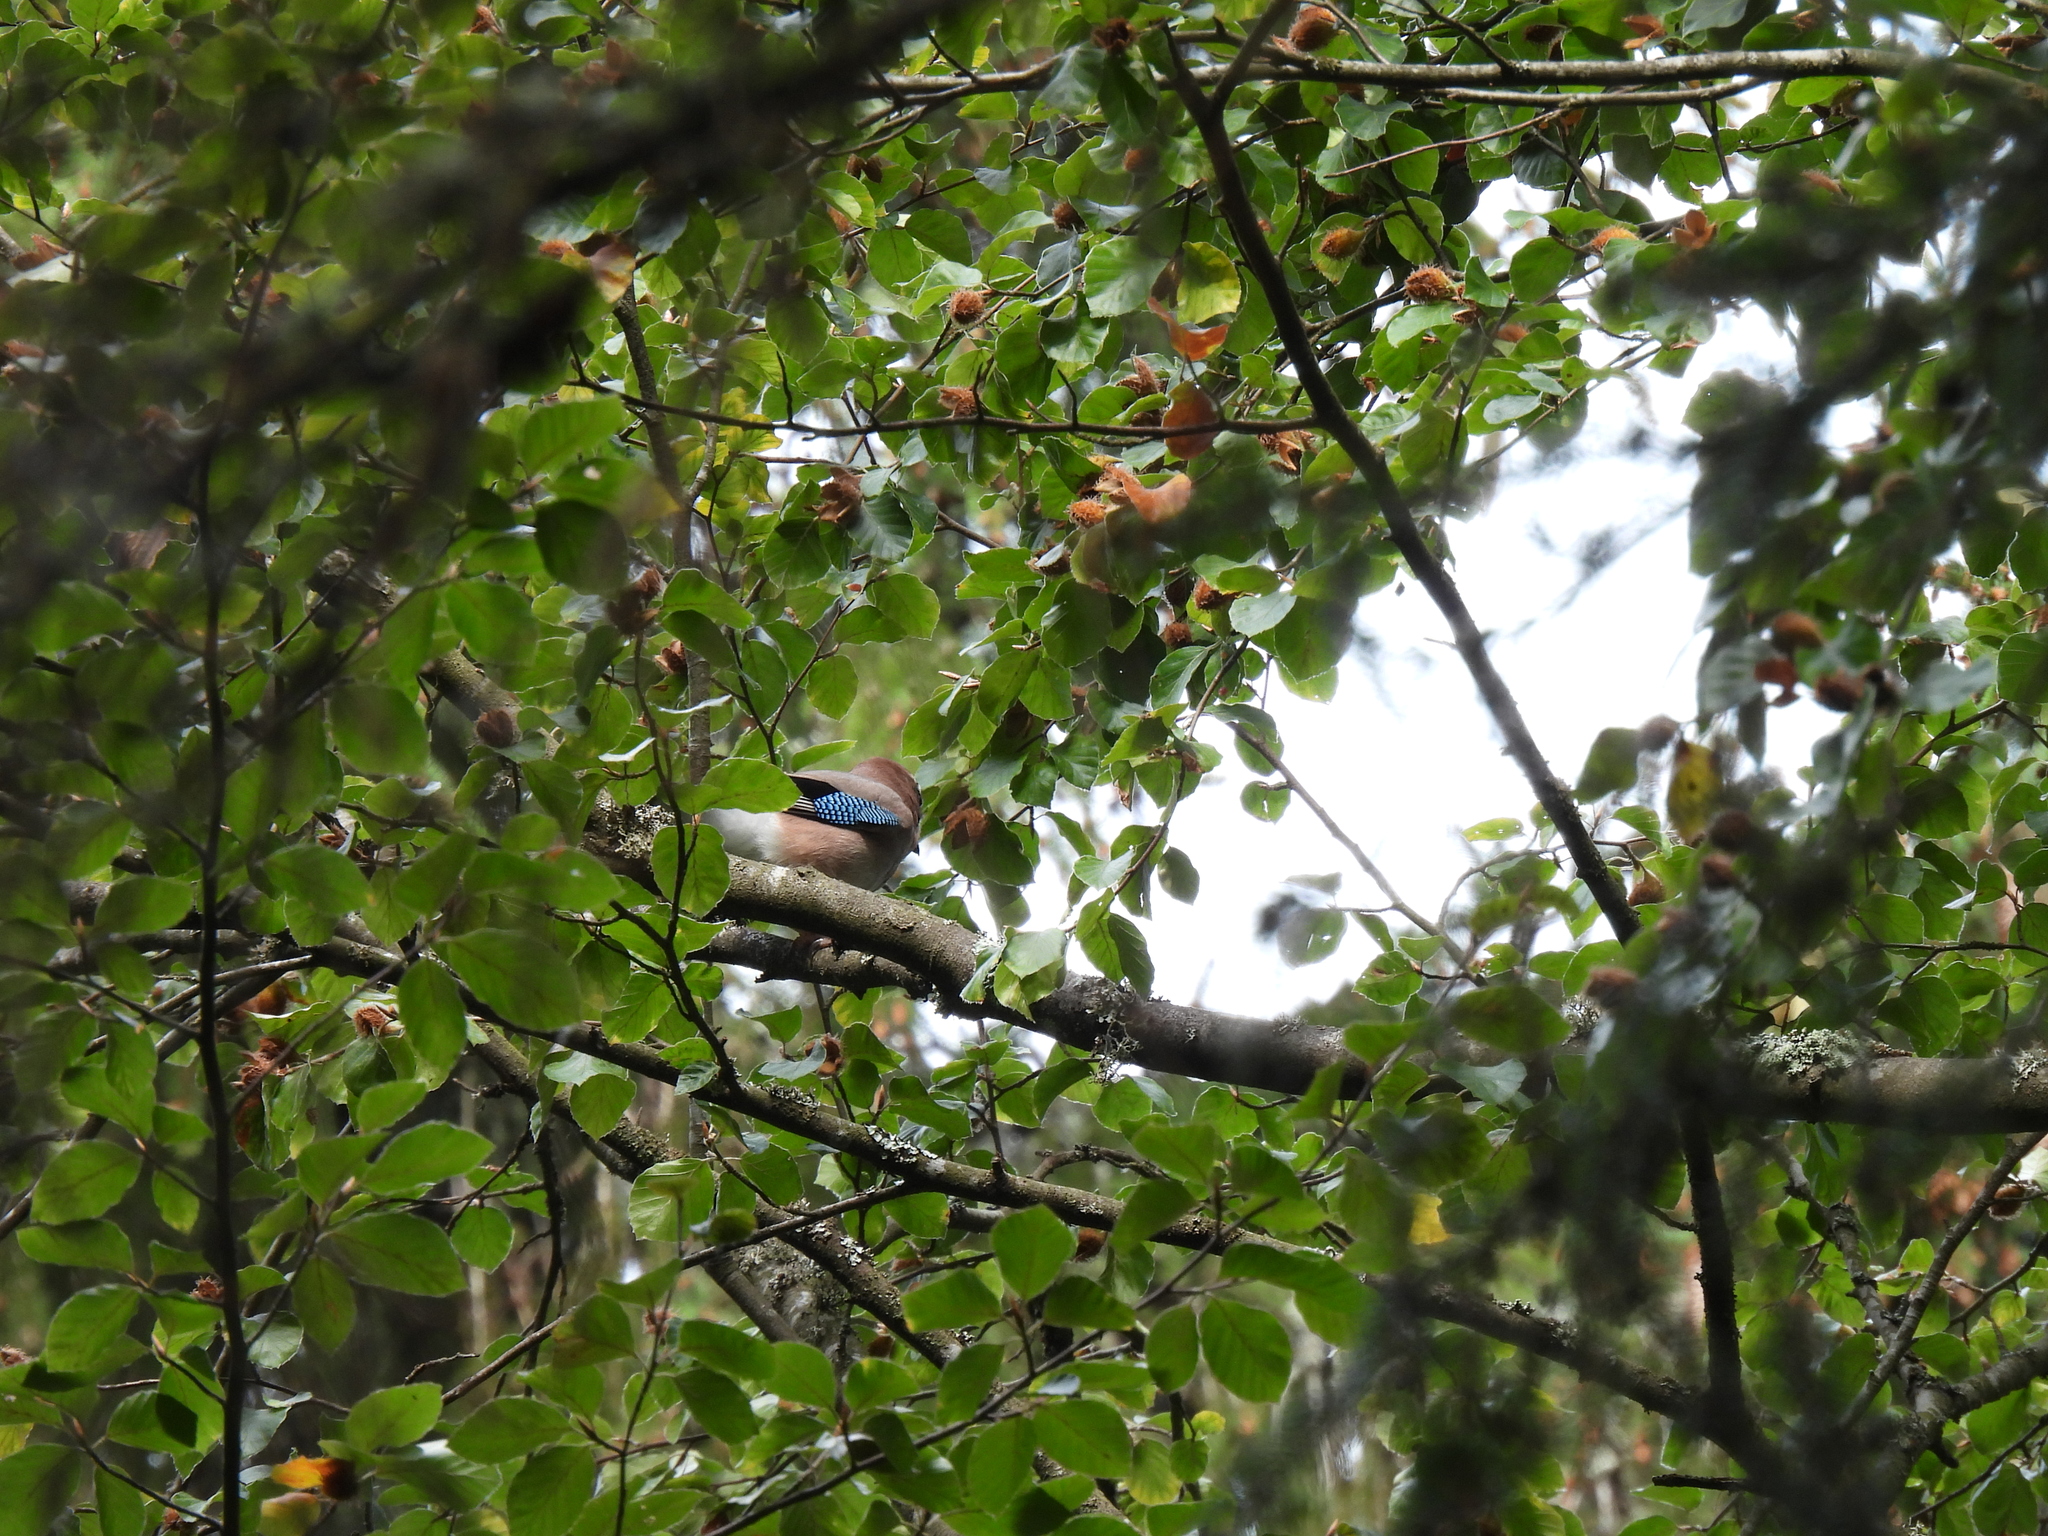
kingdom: Animalia
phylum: Chordata
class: Aves
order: Passeriformes
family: Corvidae
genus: Garrulus
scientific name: Garrulus glandarius
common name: Eurasian jay
